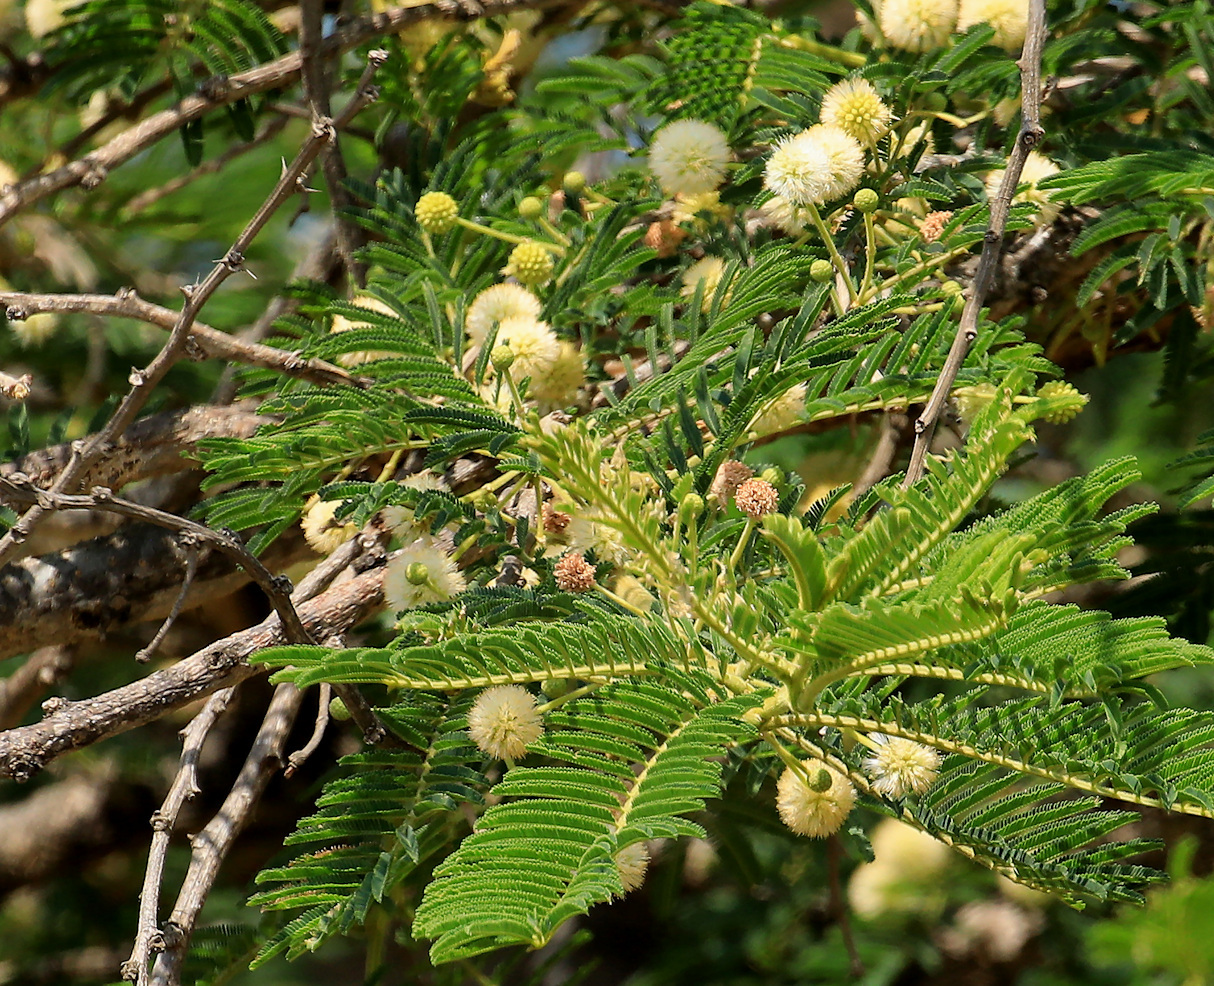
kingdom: Plantae
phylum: Tracheophyta
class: Magnoliopsida
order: Fabales
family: Fabaceae
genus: Vachellia
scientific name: Vachellia sieberiana
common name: Flat-topped thorn
